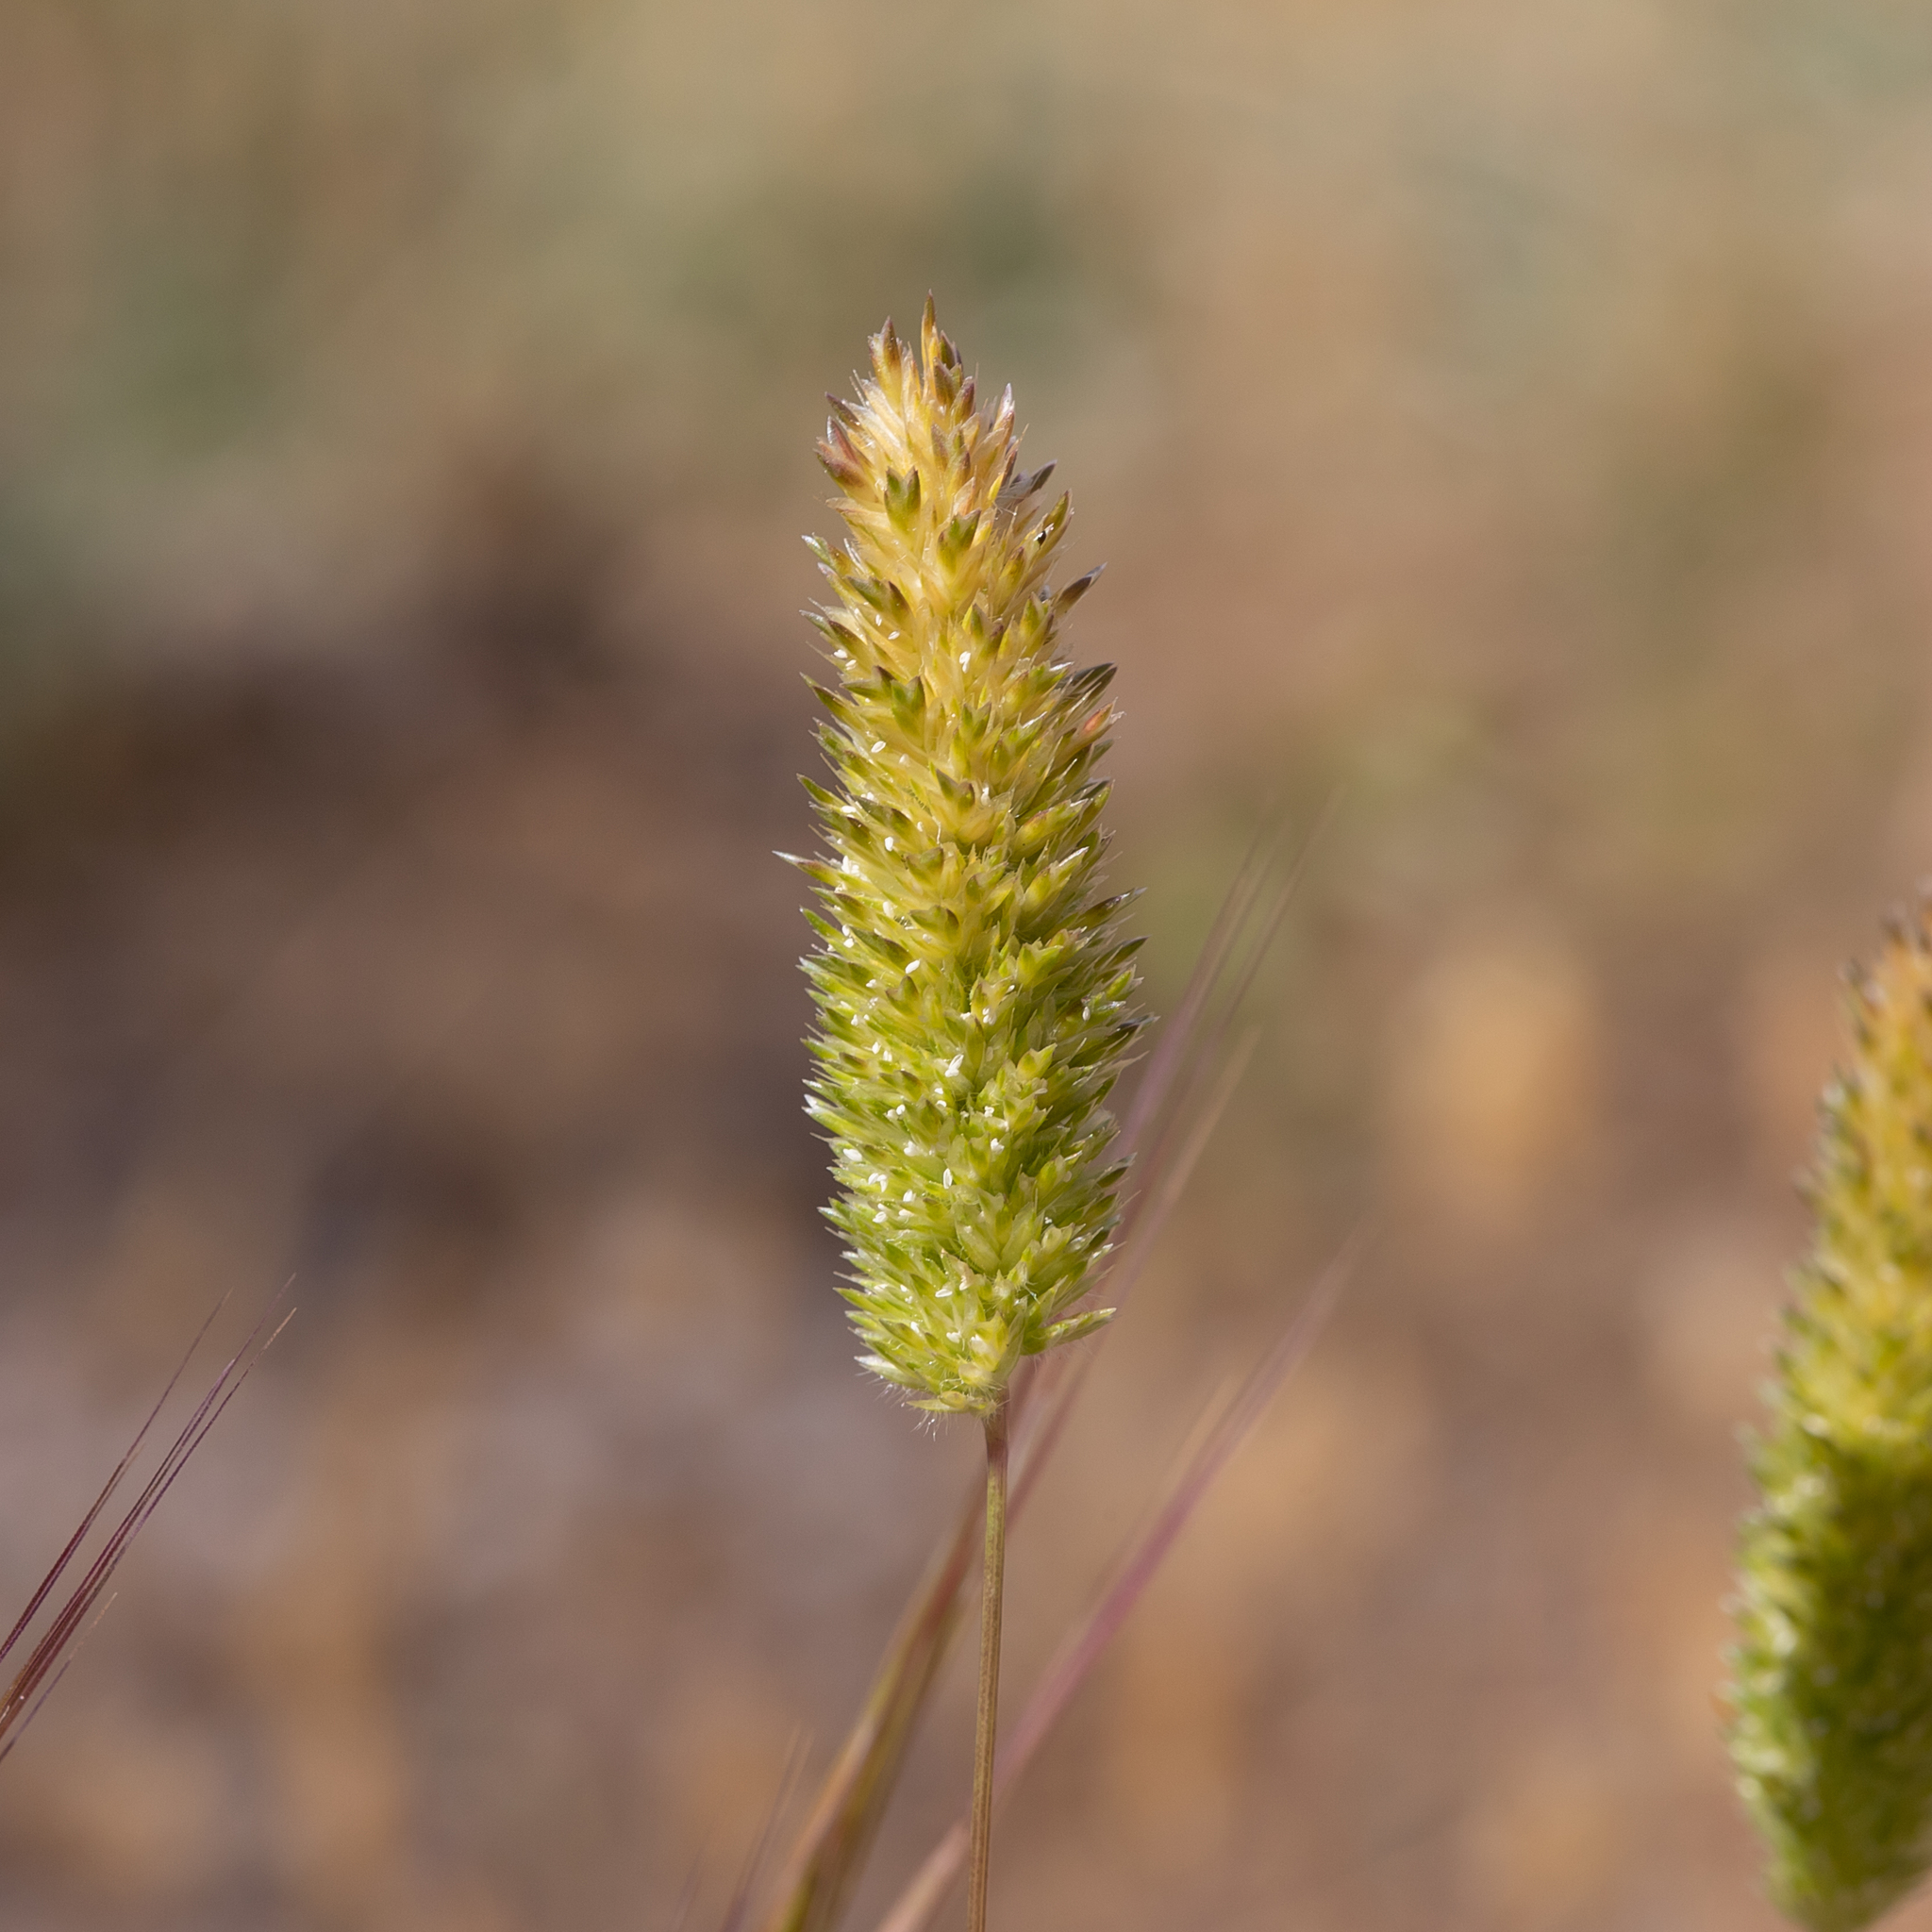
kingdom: Plantae
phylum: Tracheophyta
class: Liliopsida
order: Poales
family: Poaceae
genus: Rostraria
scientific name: Rostraria pumila
